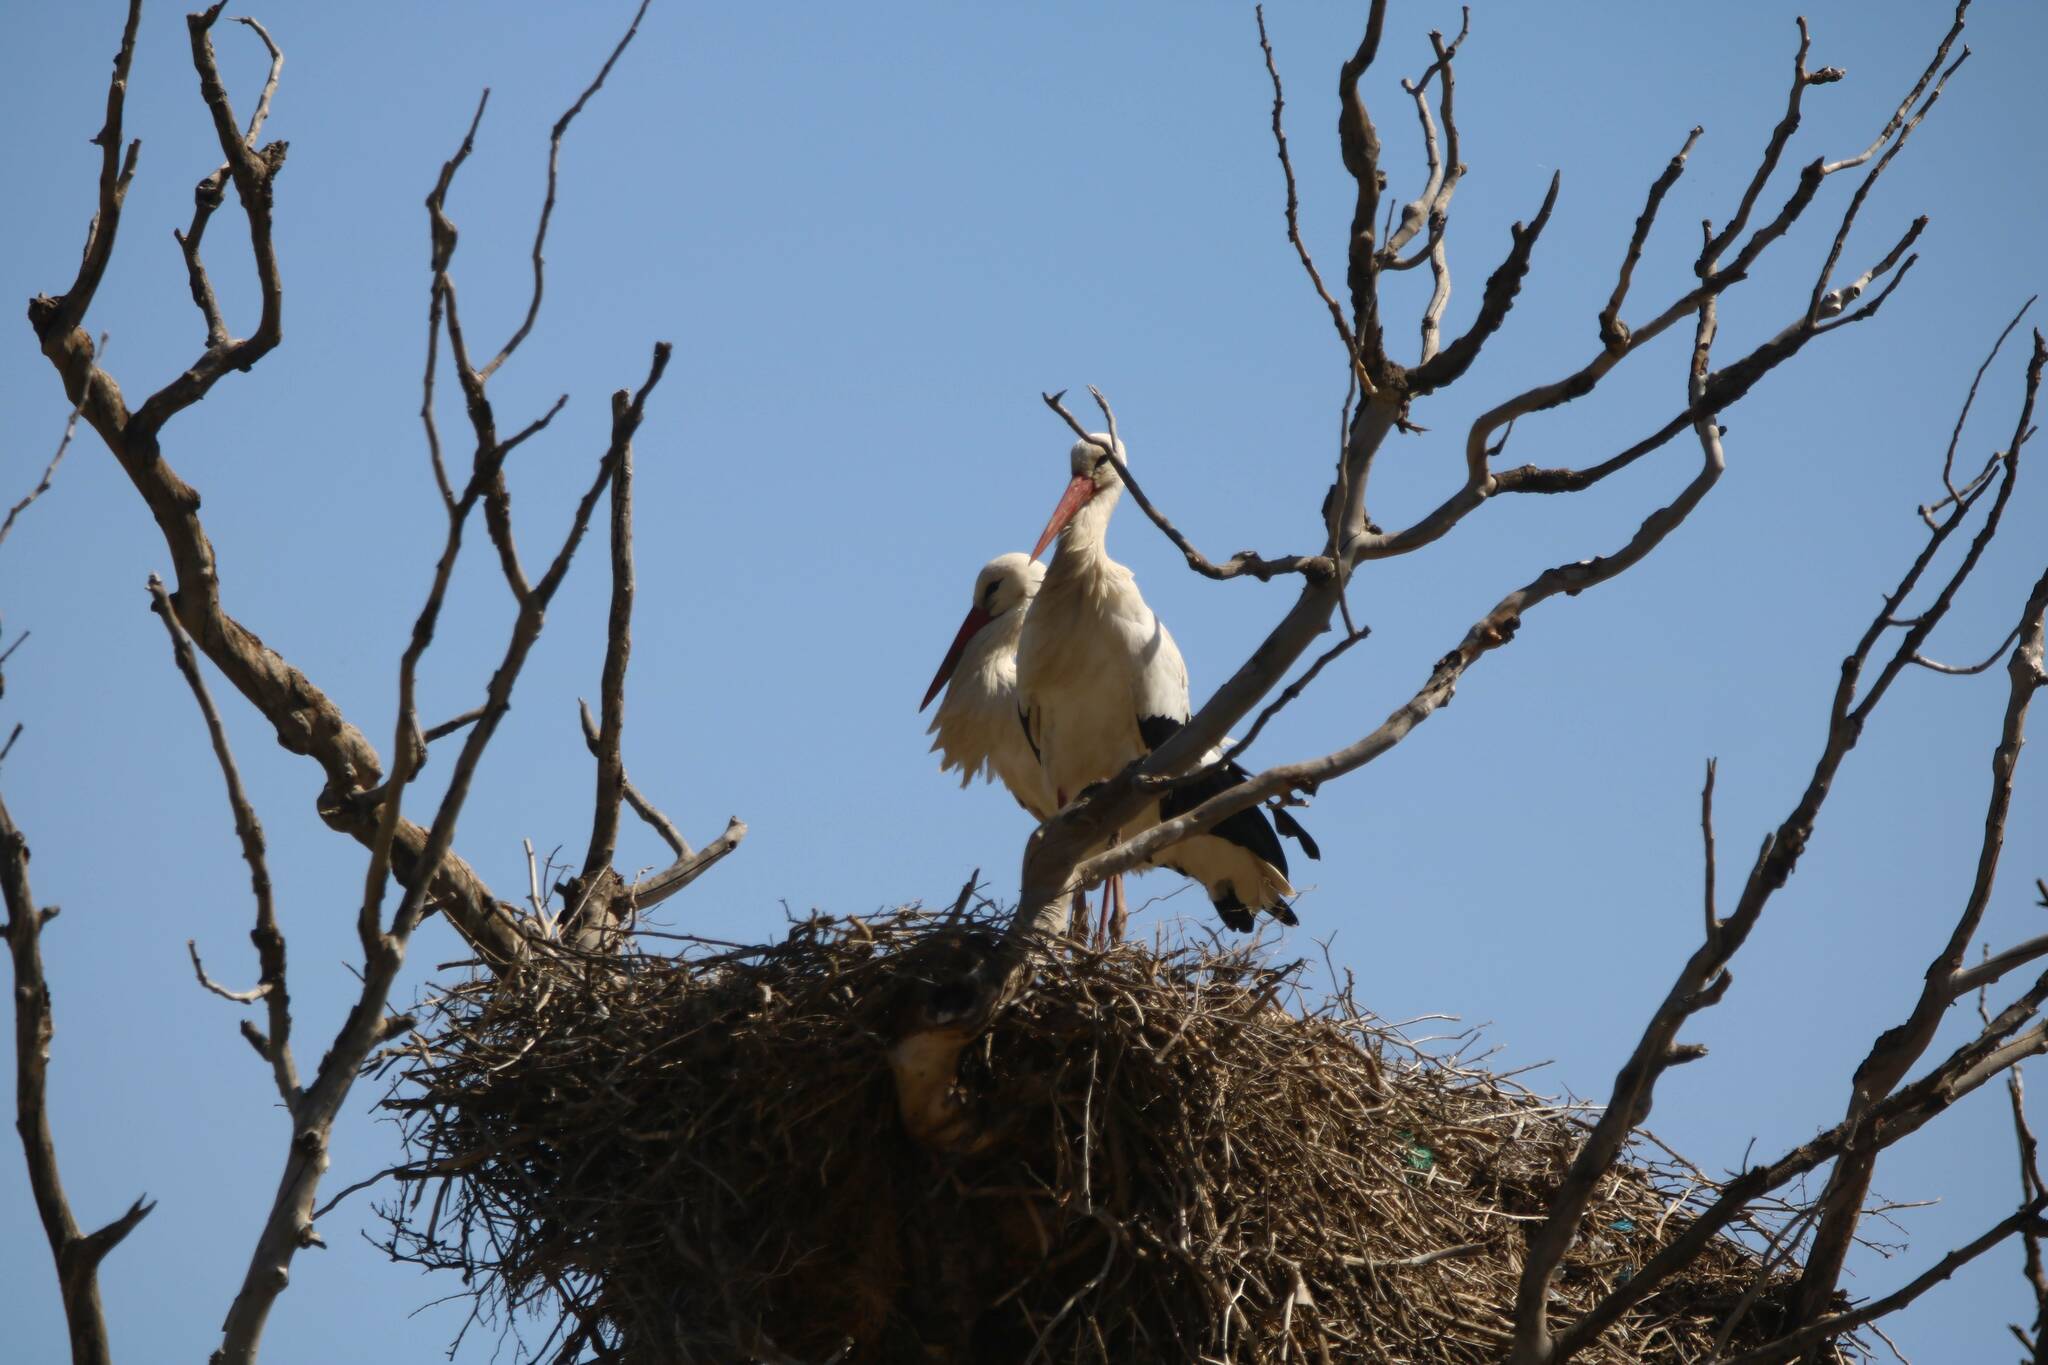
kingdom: Animalia
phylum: Chordata
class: Aves
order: Ciconiiformes
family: Ciconiidae
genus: Ciconia
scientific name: Ciconia ciconia
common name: White stork
